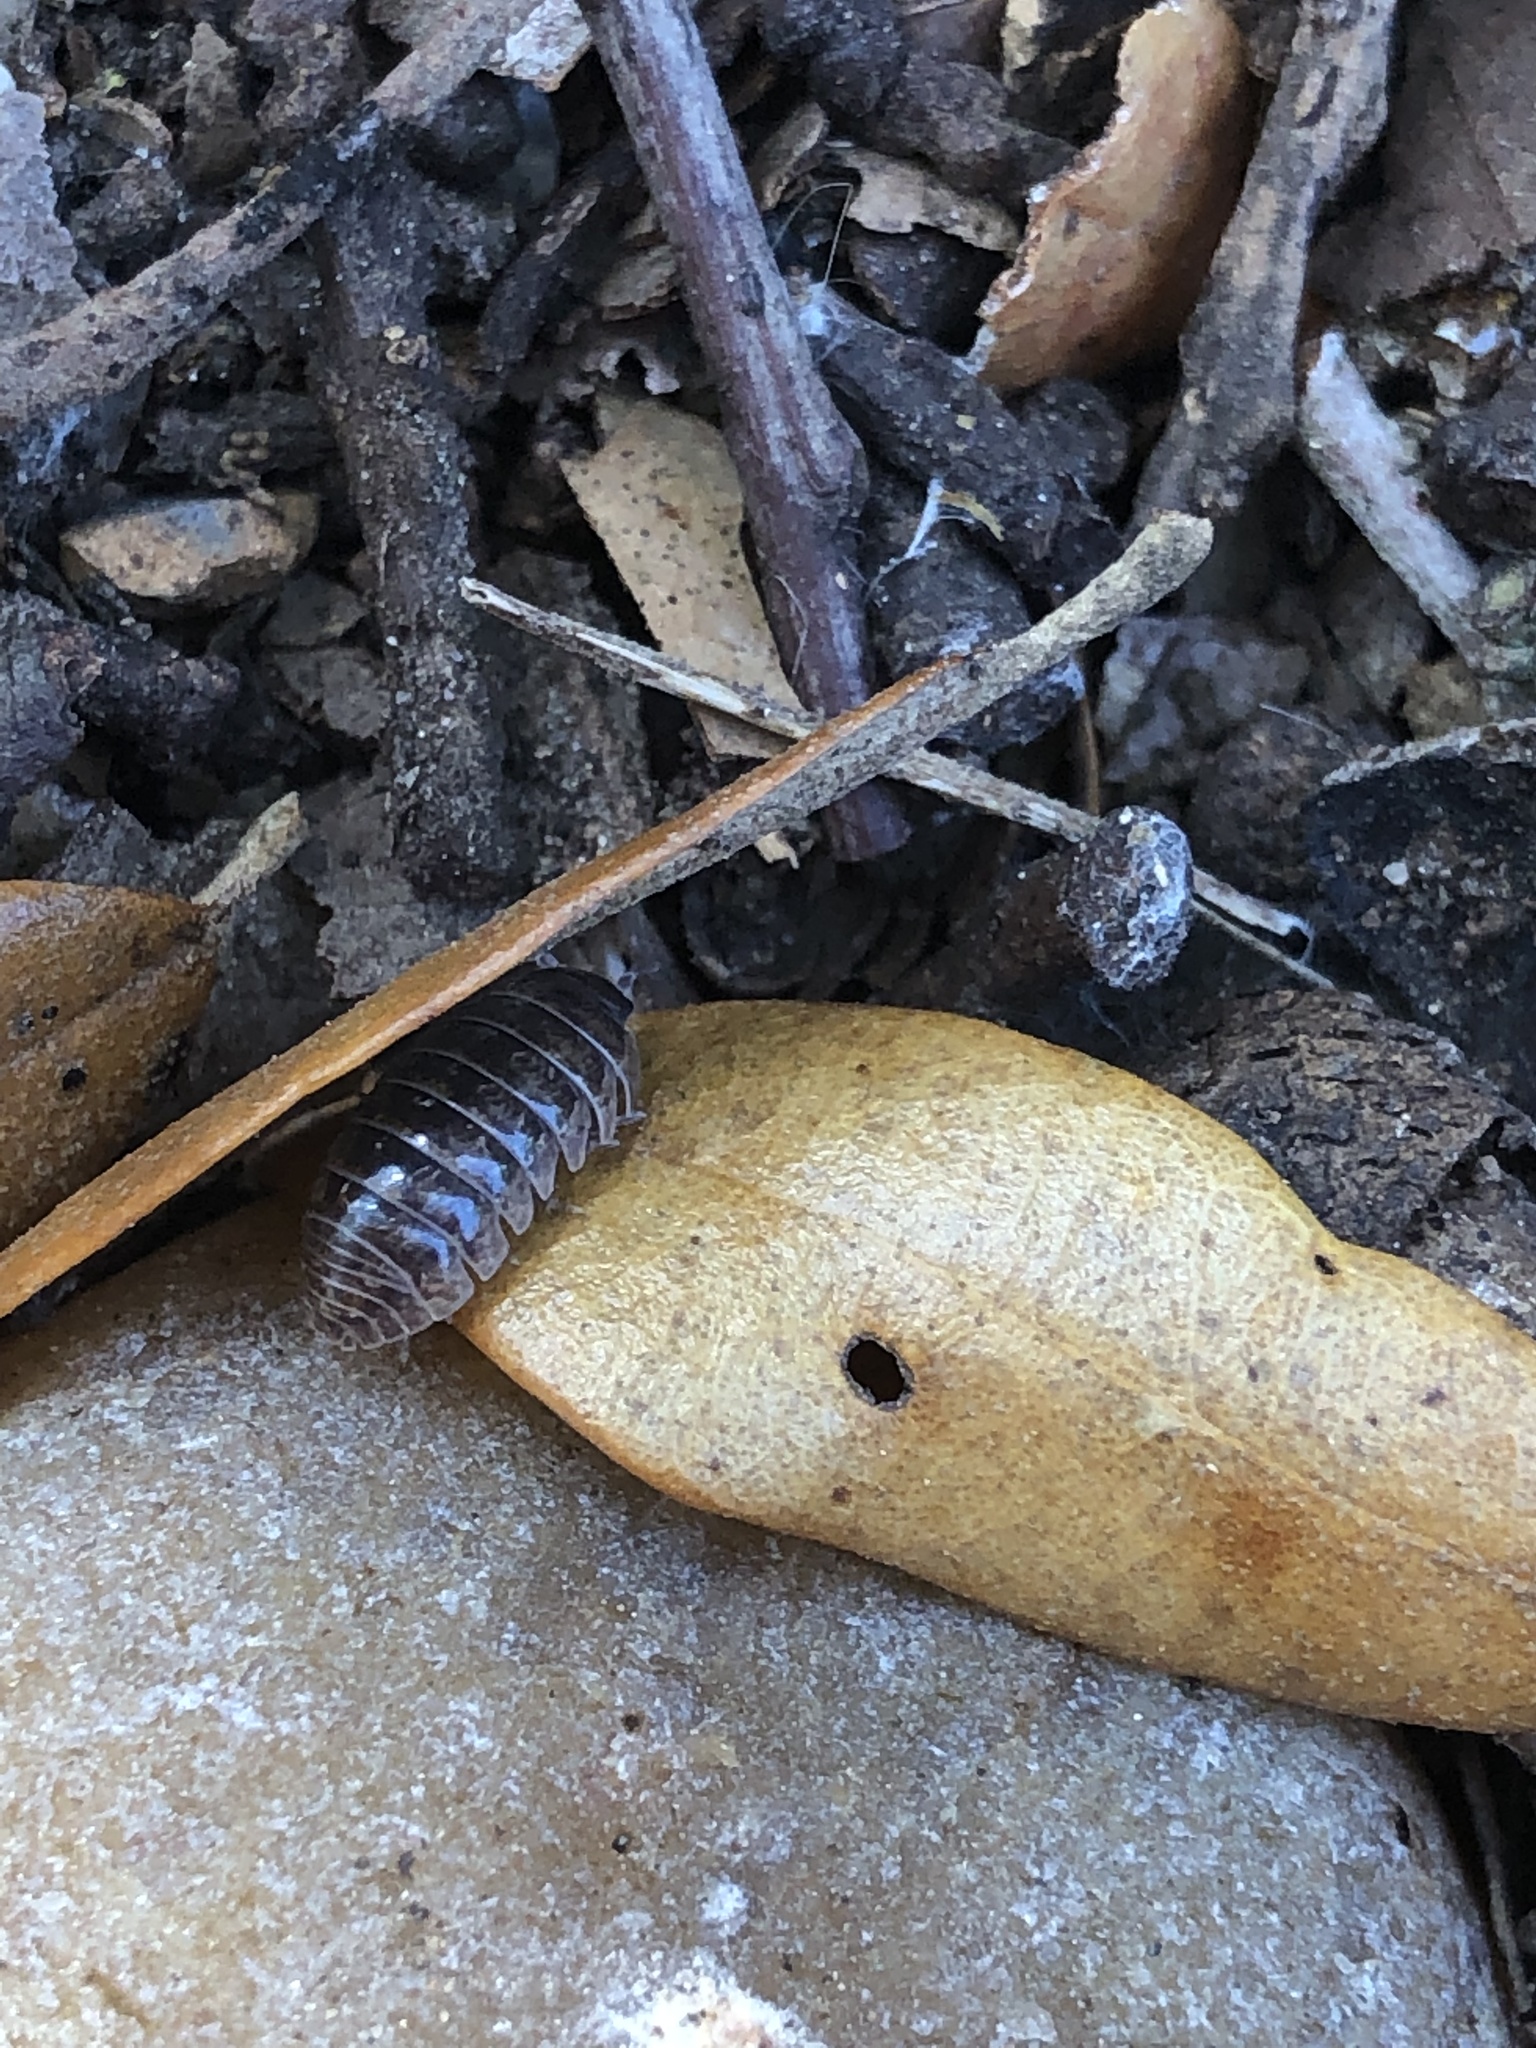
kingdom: Animalia
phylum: Arthropoda
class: Malacostraca
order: Isopoda
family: Armadillidiidae
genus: Armadillidium
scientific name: Armadillidium vulgare
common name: Common pill woodlouse
